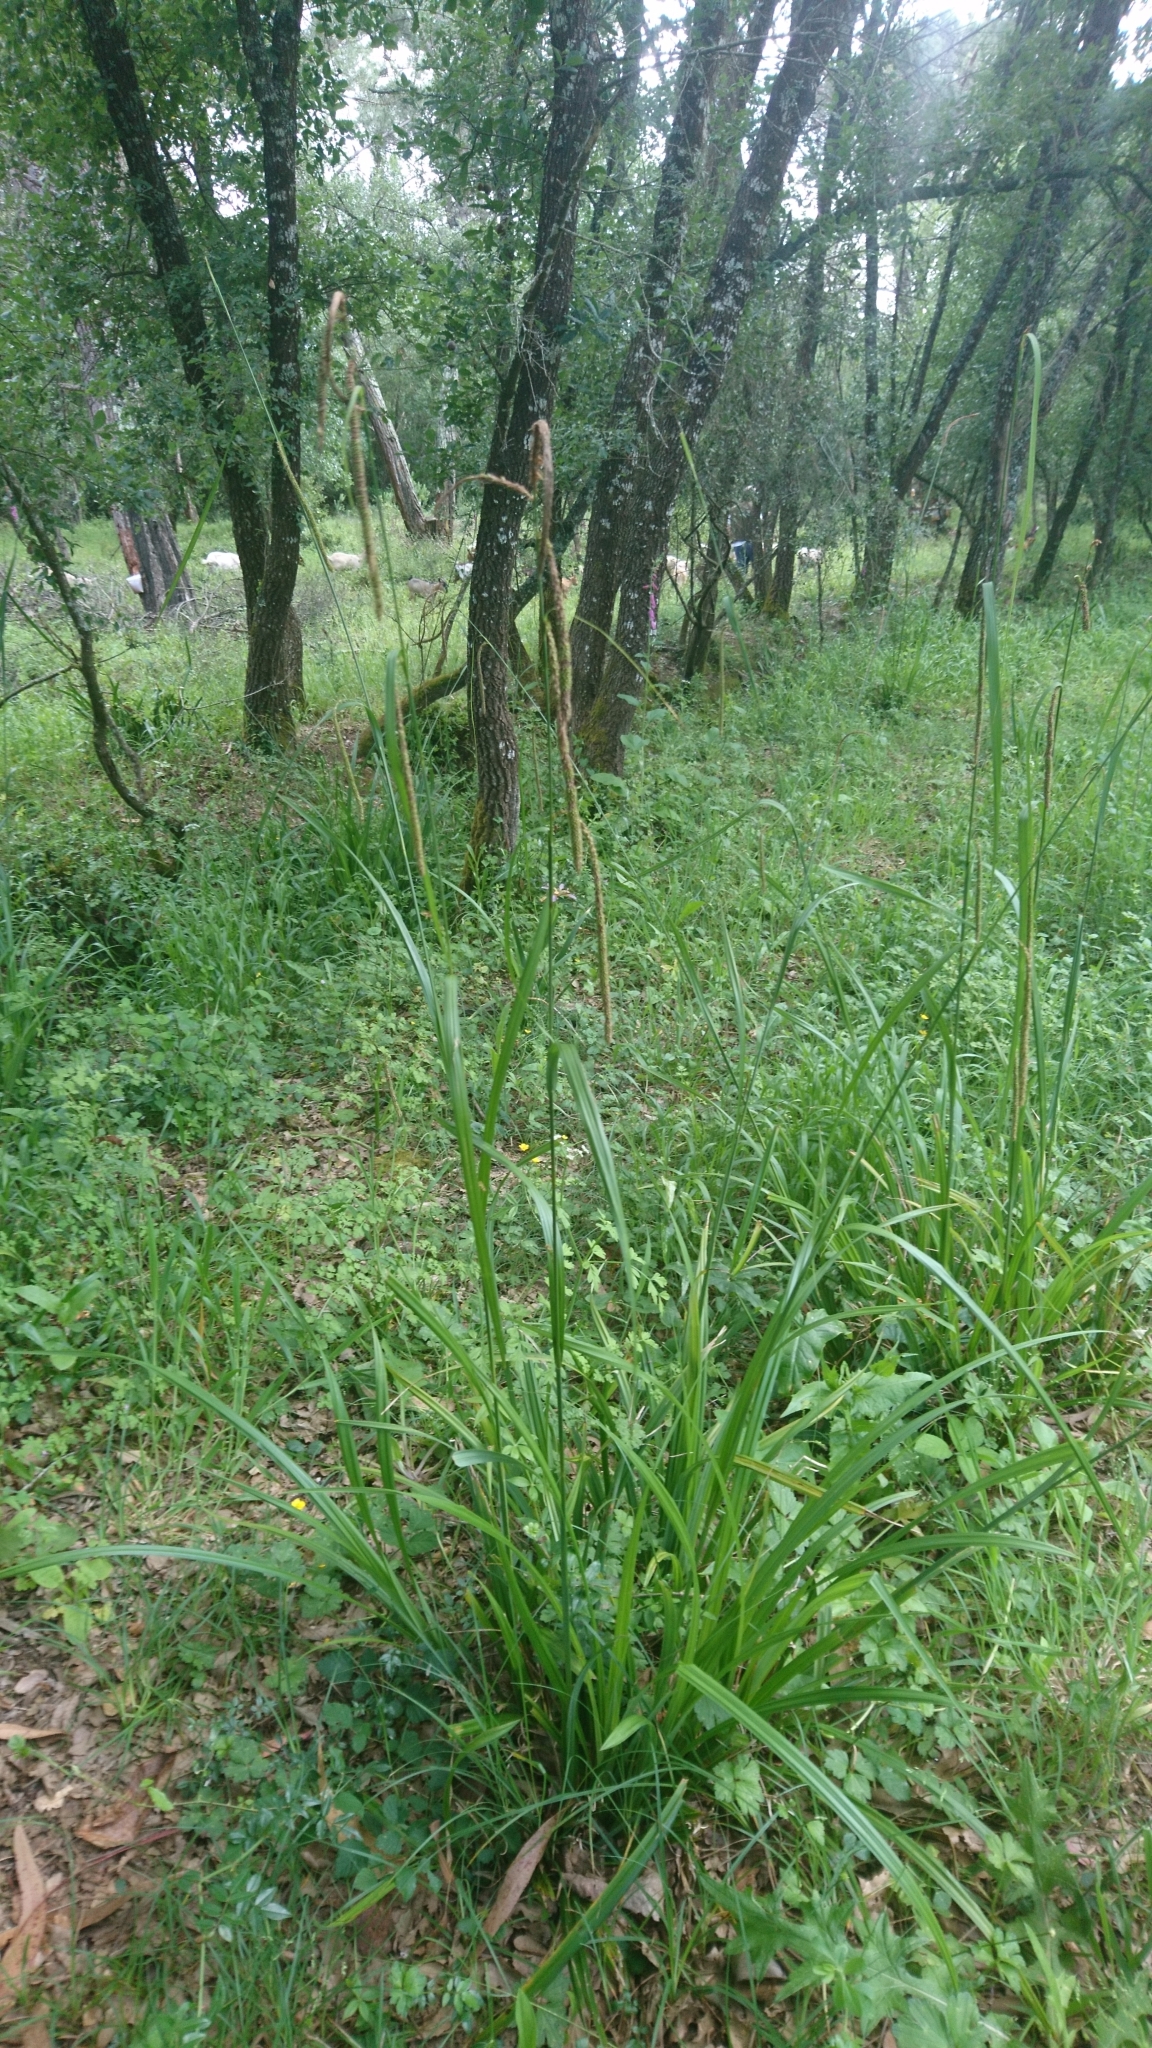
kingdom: Plantae
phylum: Tracheophyta
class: Liliopsida
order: Poales
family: Cyperaceae
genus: Carex
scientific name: Carex pendula
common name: Pendulous sedge
